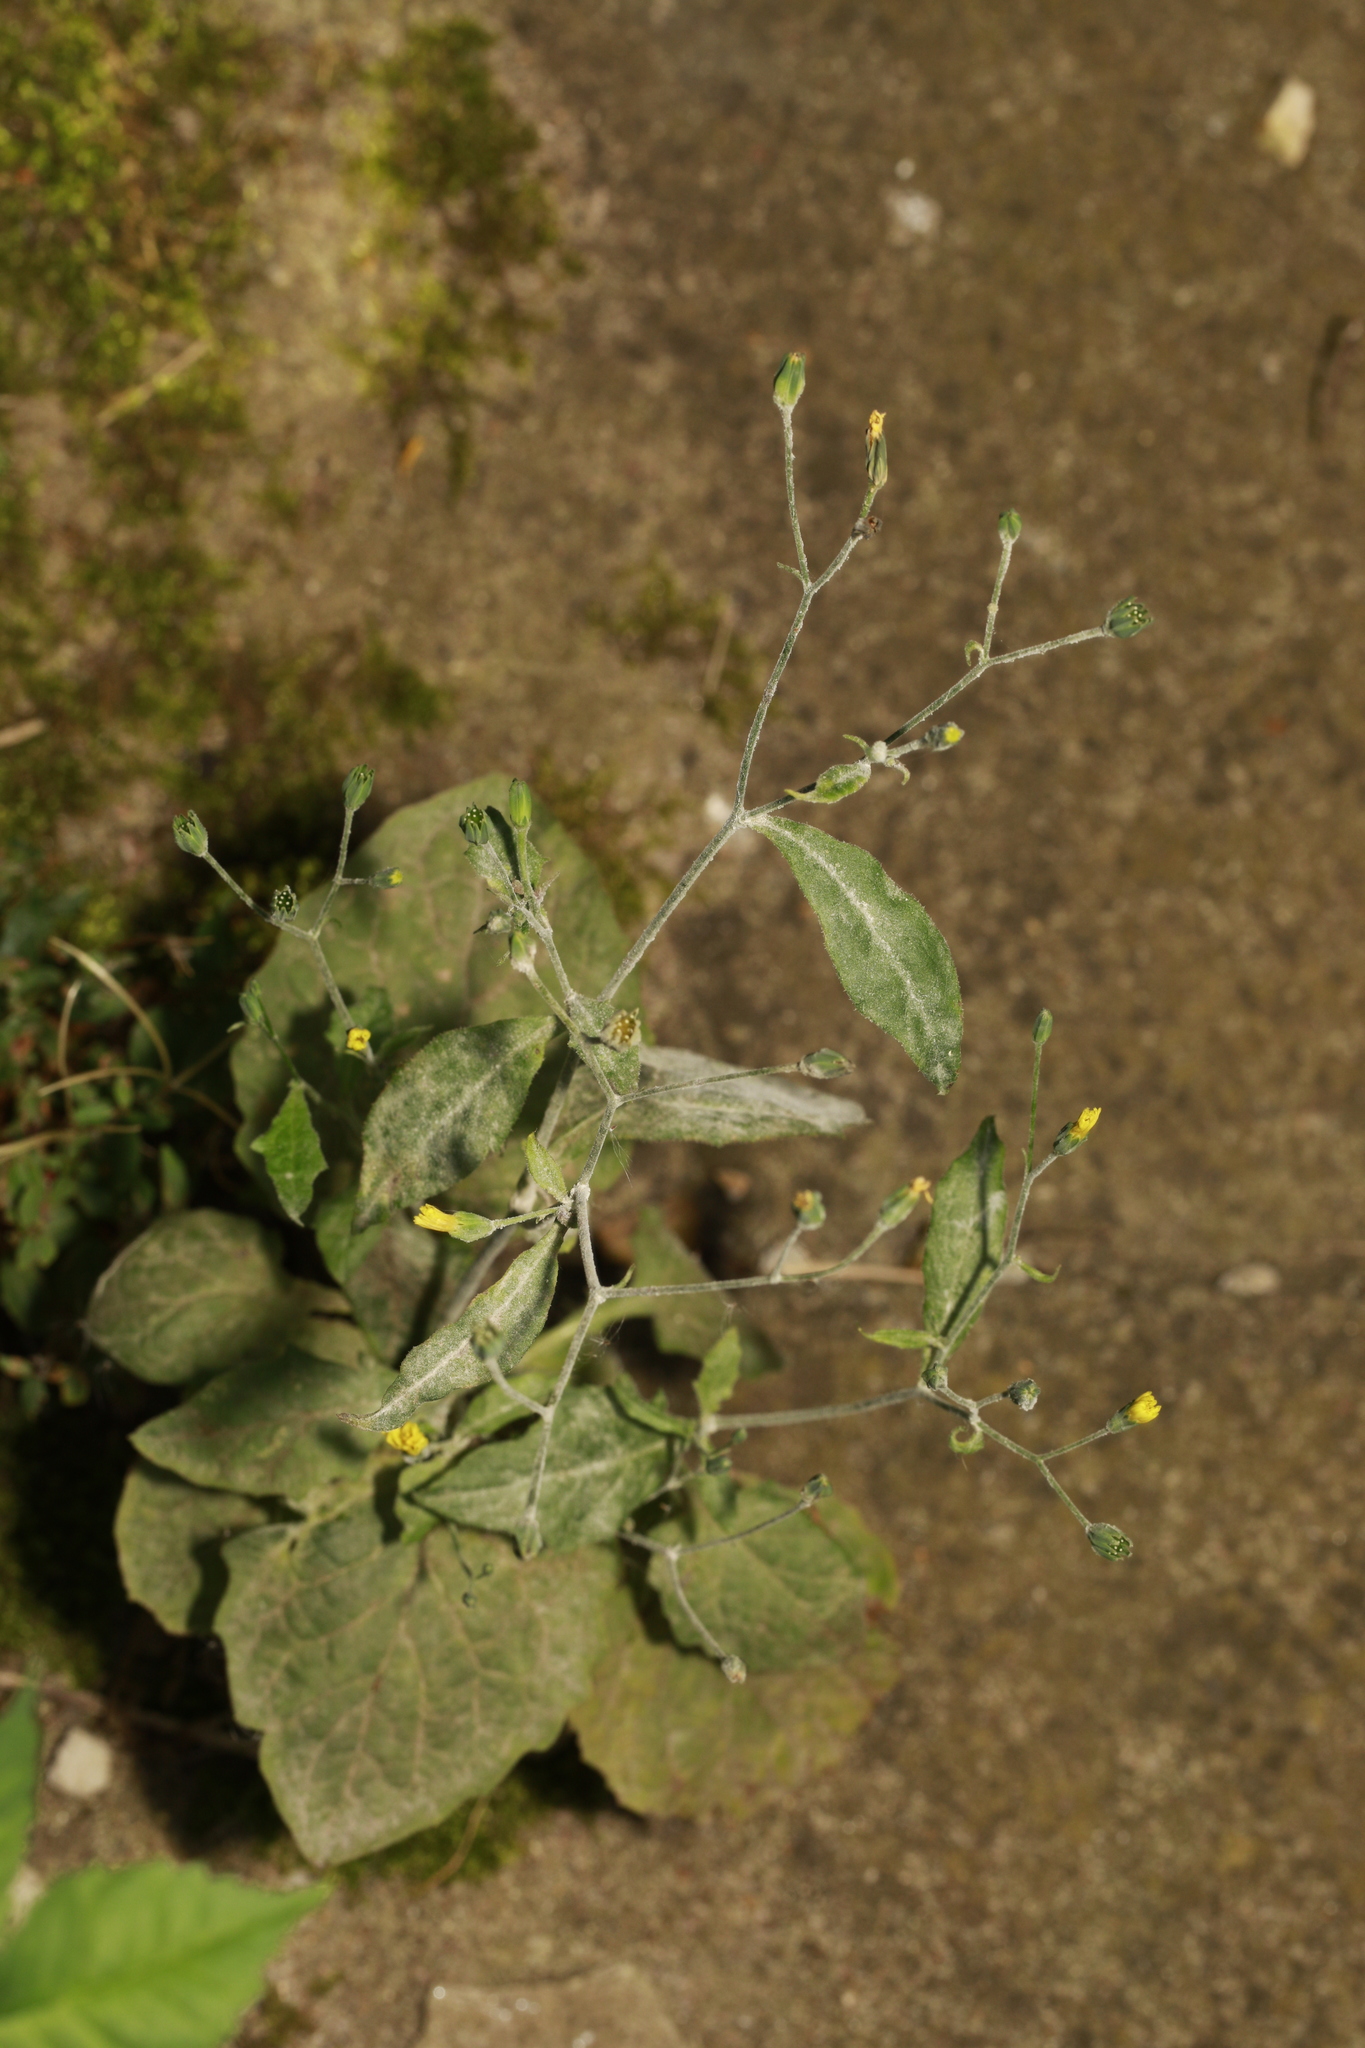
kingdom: Plantae
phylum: Tracheophyta
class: Magnoliopsida
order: Asterales
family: Asteraceae
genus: Lapsana
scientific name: Lapsana communis
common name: Nipplewort
